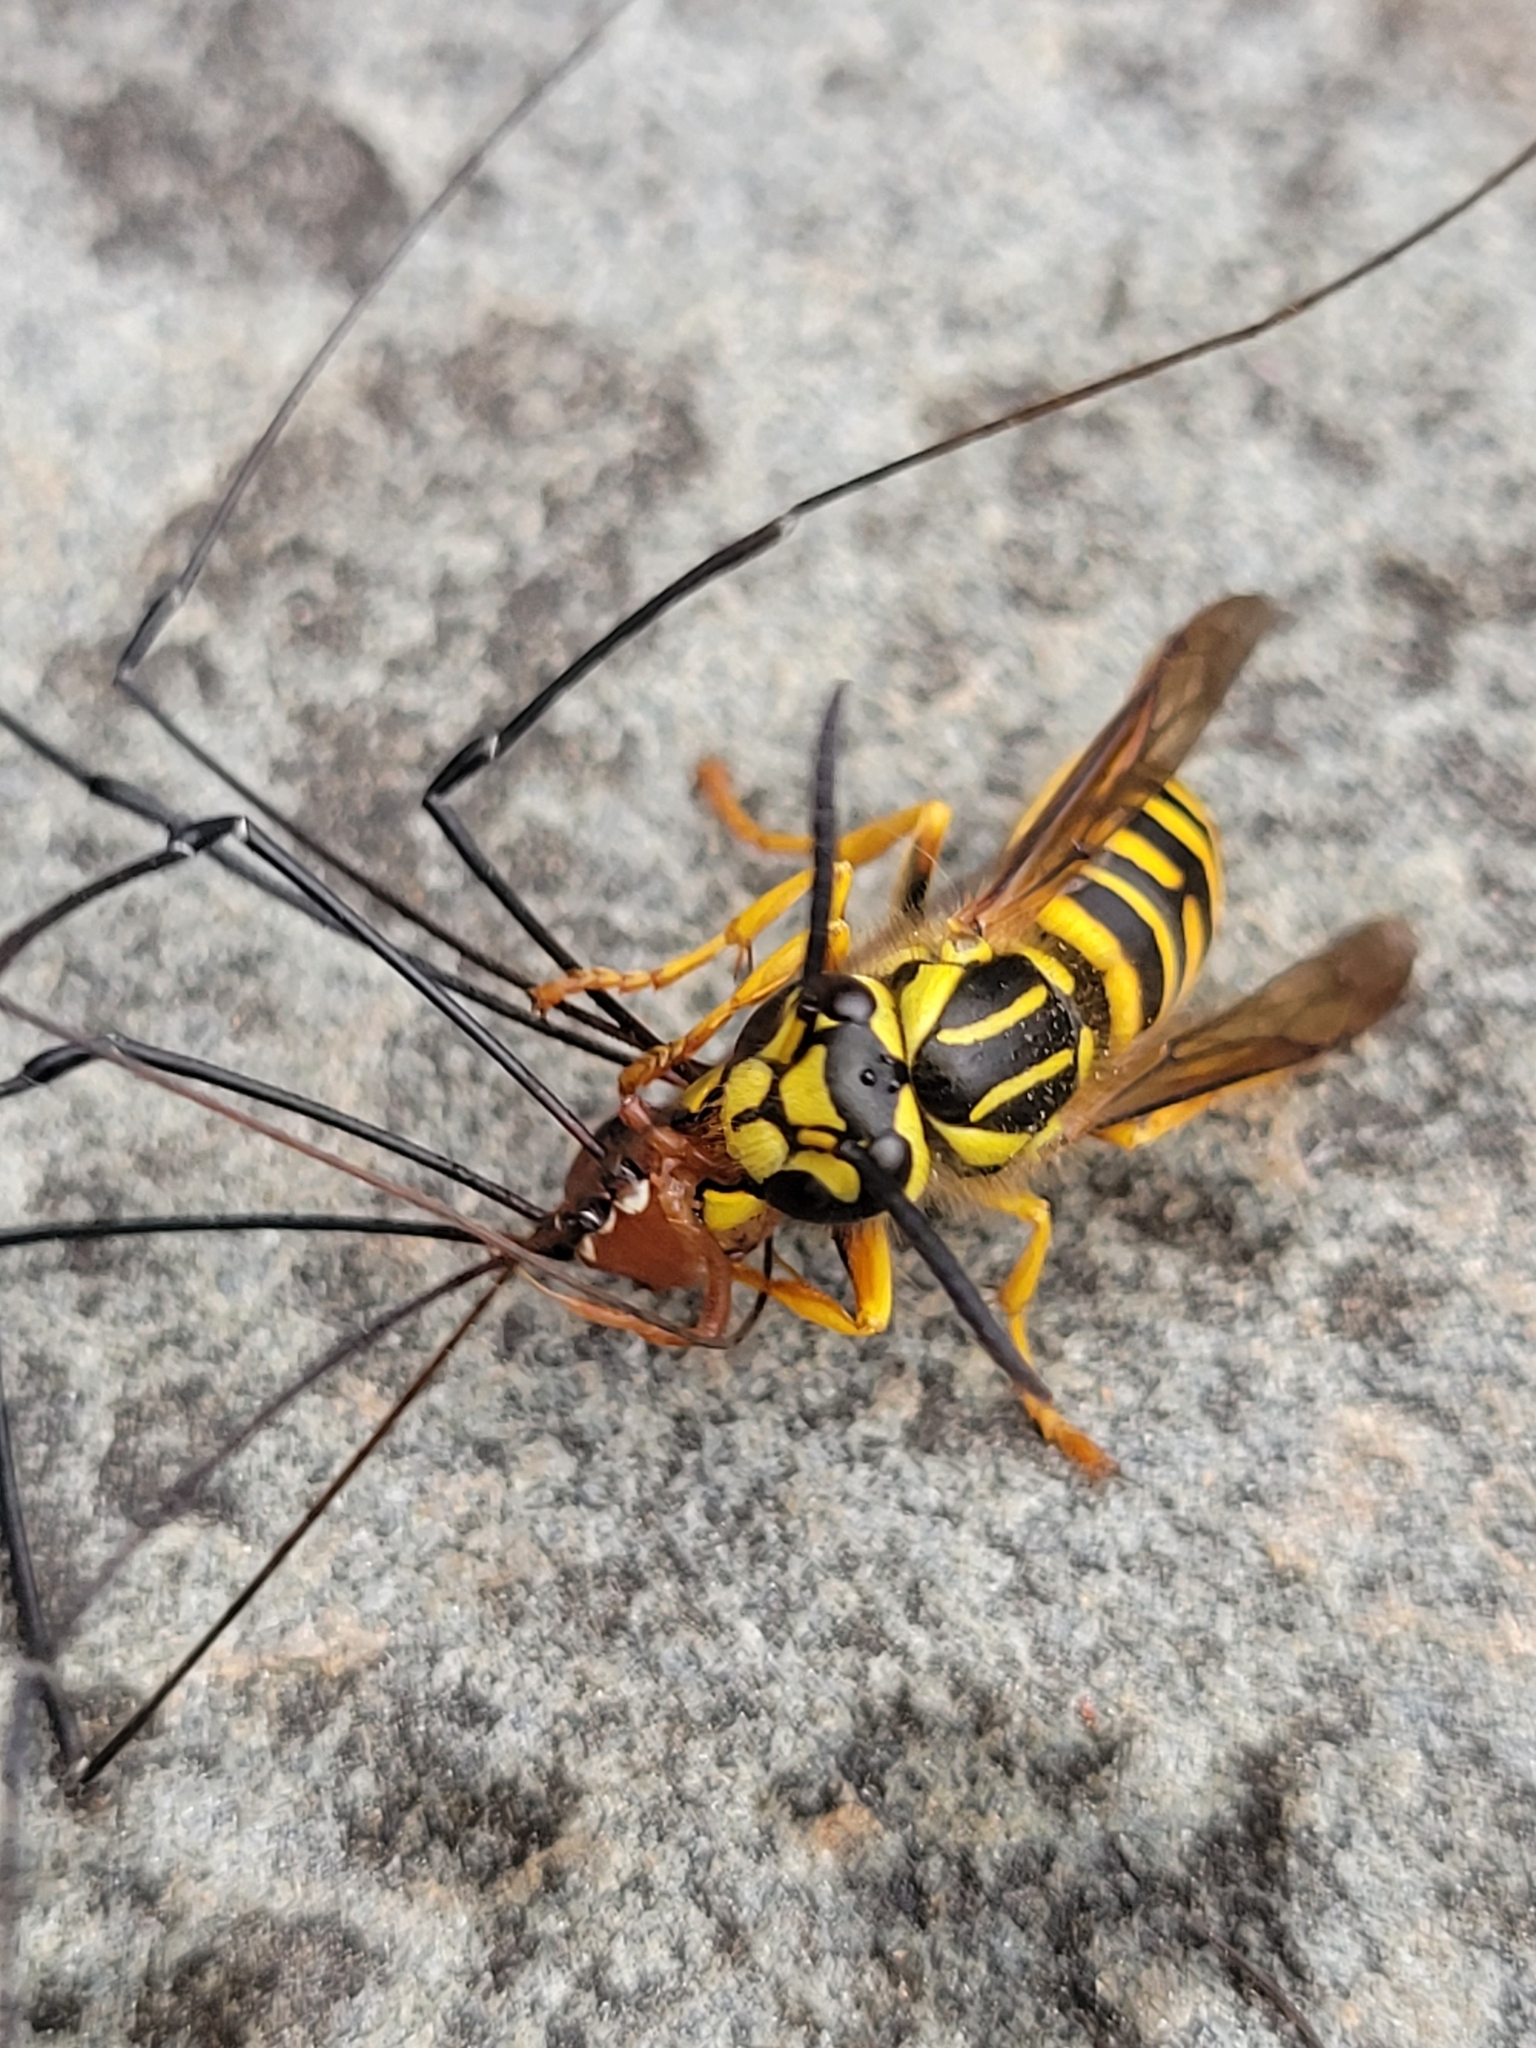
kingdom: Animalia
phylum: Arthropoda
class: Insecta
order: Hymenoptera
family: Vespidae
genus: Vespula
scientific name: Vespula squamosa
